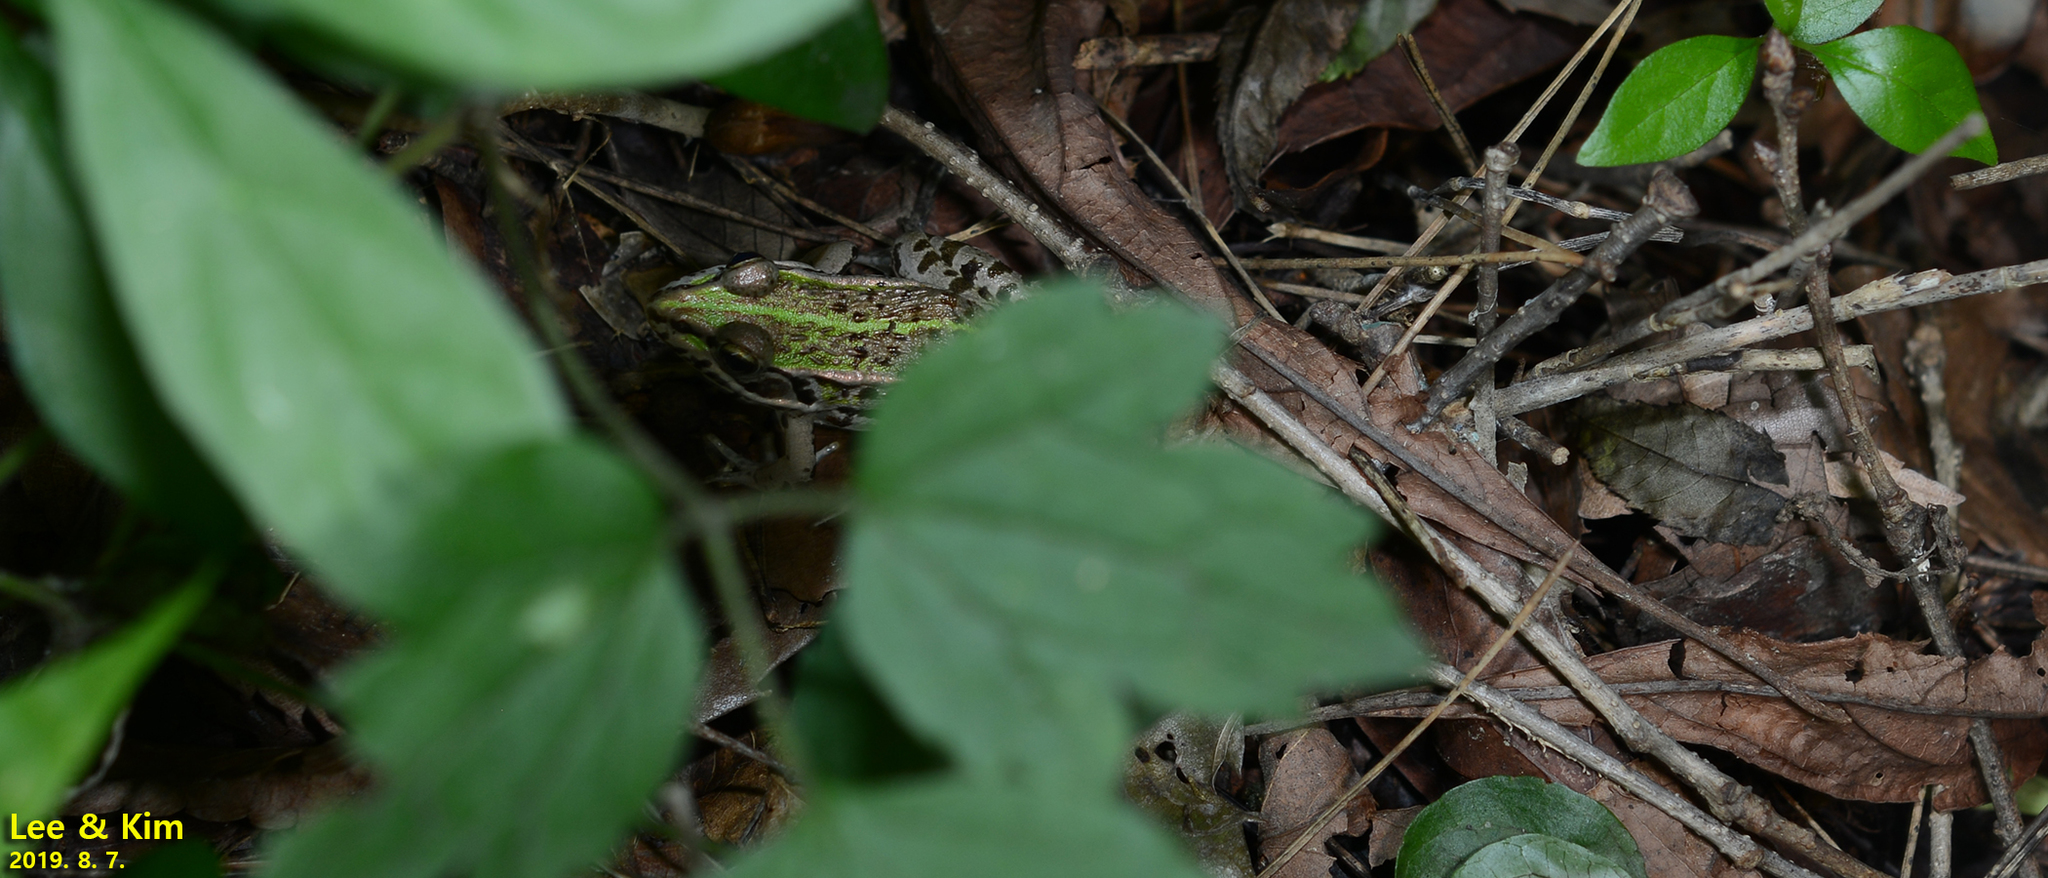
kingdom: Animalia
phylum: Chordata
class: Amphibia
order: Anura
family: Ranidae
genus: Pelophylax
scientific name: Pelophylax nigromaculatus
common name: Black-spotted pond frog
